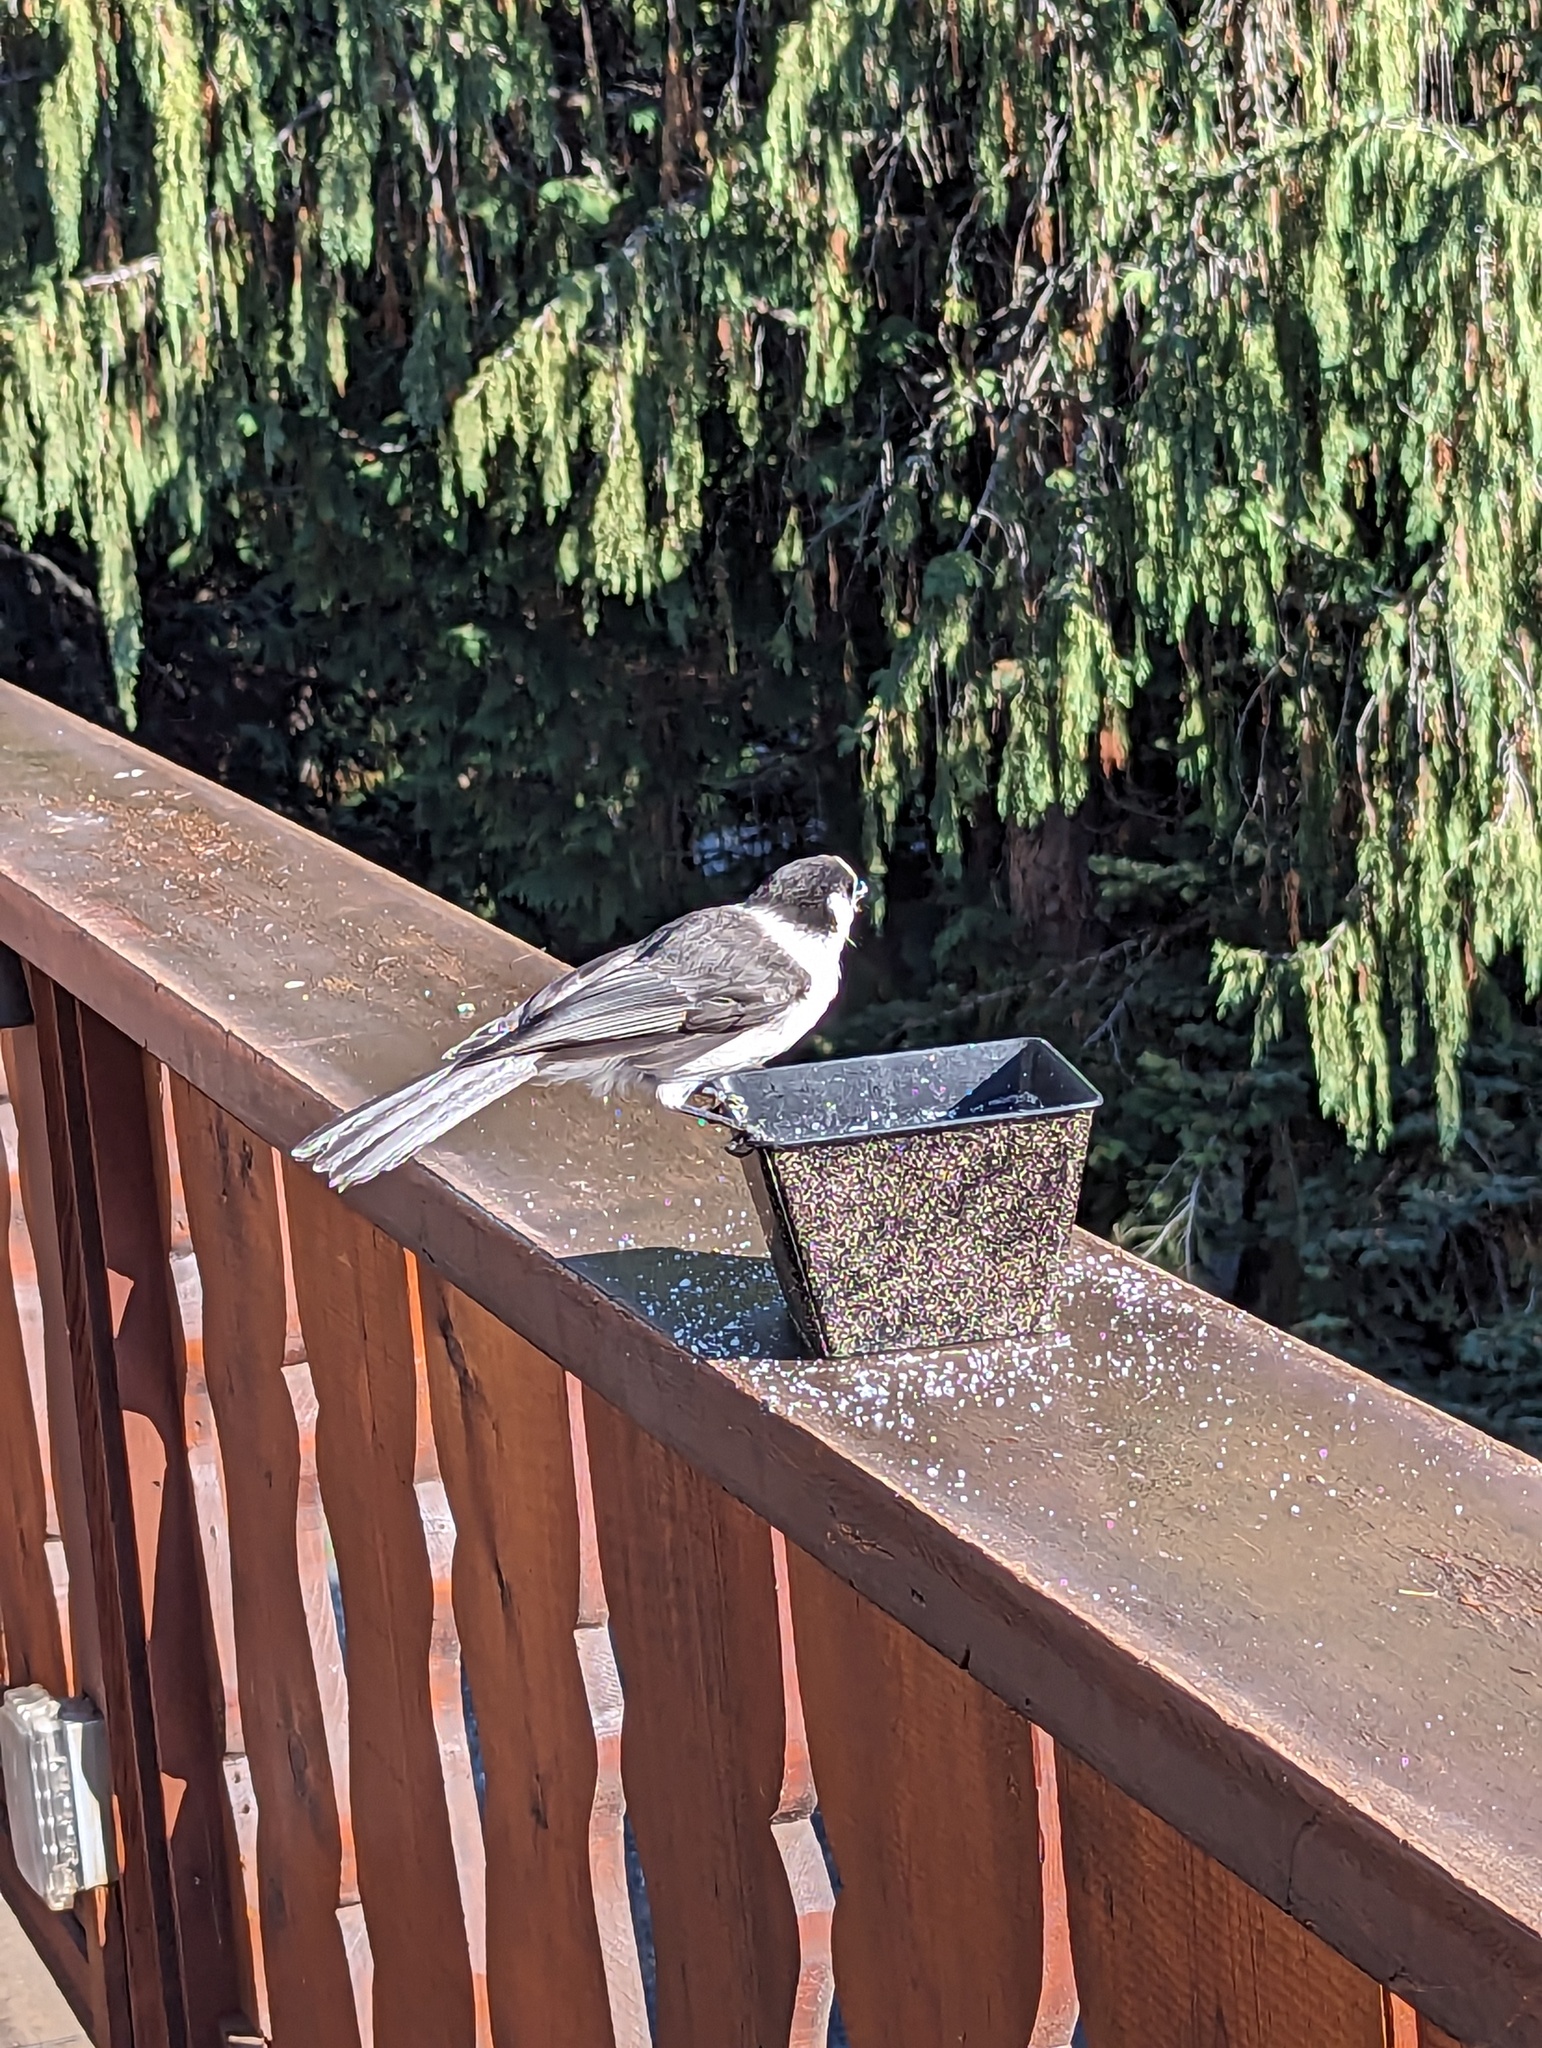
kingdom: Animalia
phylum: Chordata
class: Aves
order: Passeriformes
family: Corvidae
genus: Perisoreus
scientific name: Perisoreus canadensis
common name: Gray jay
